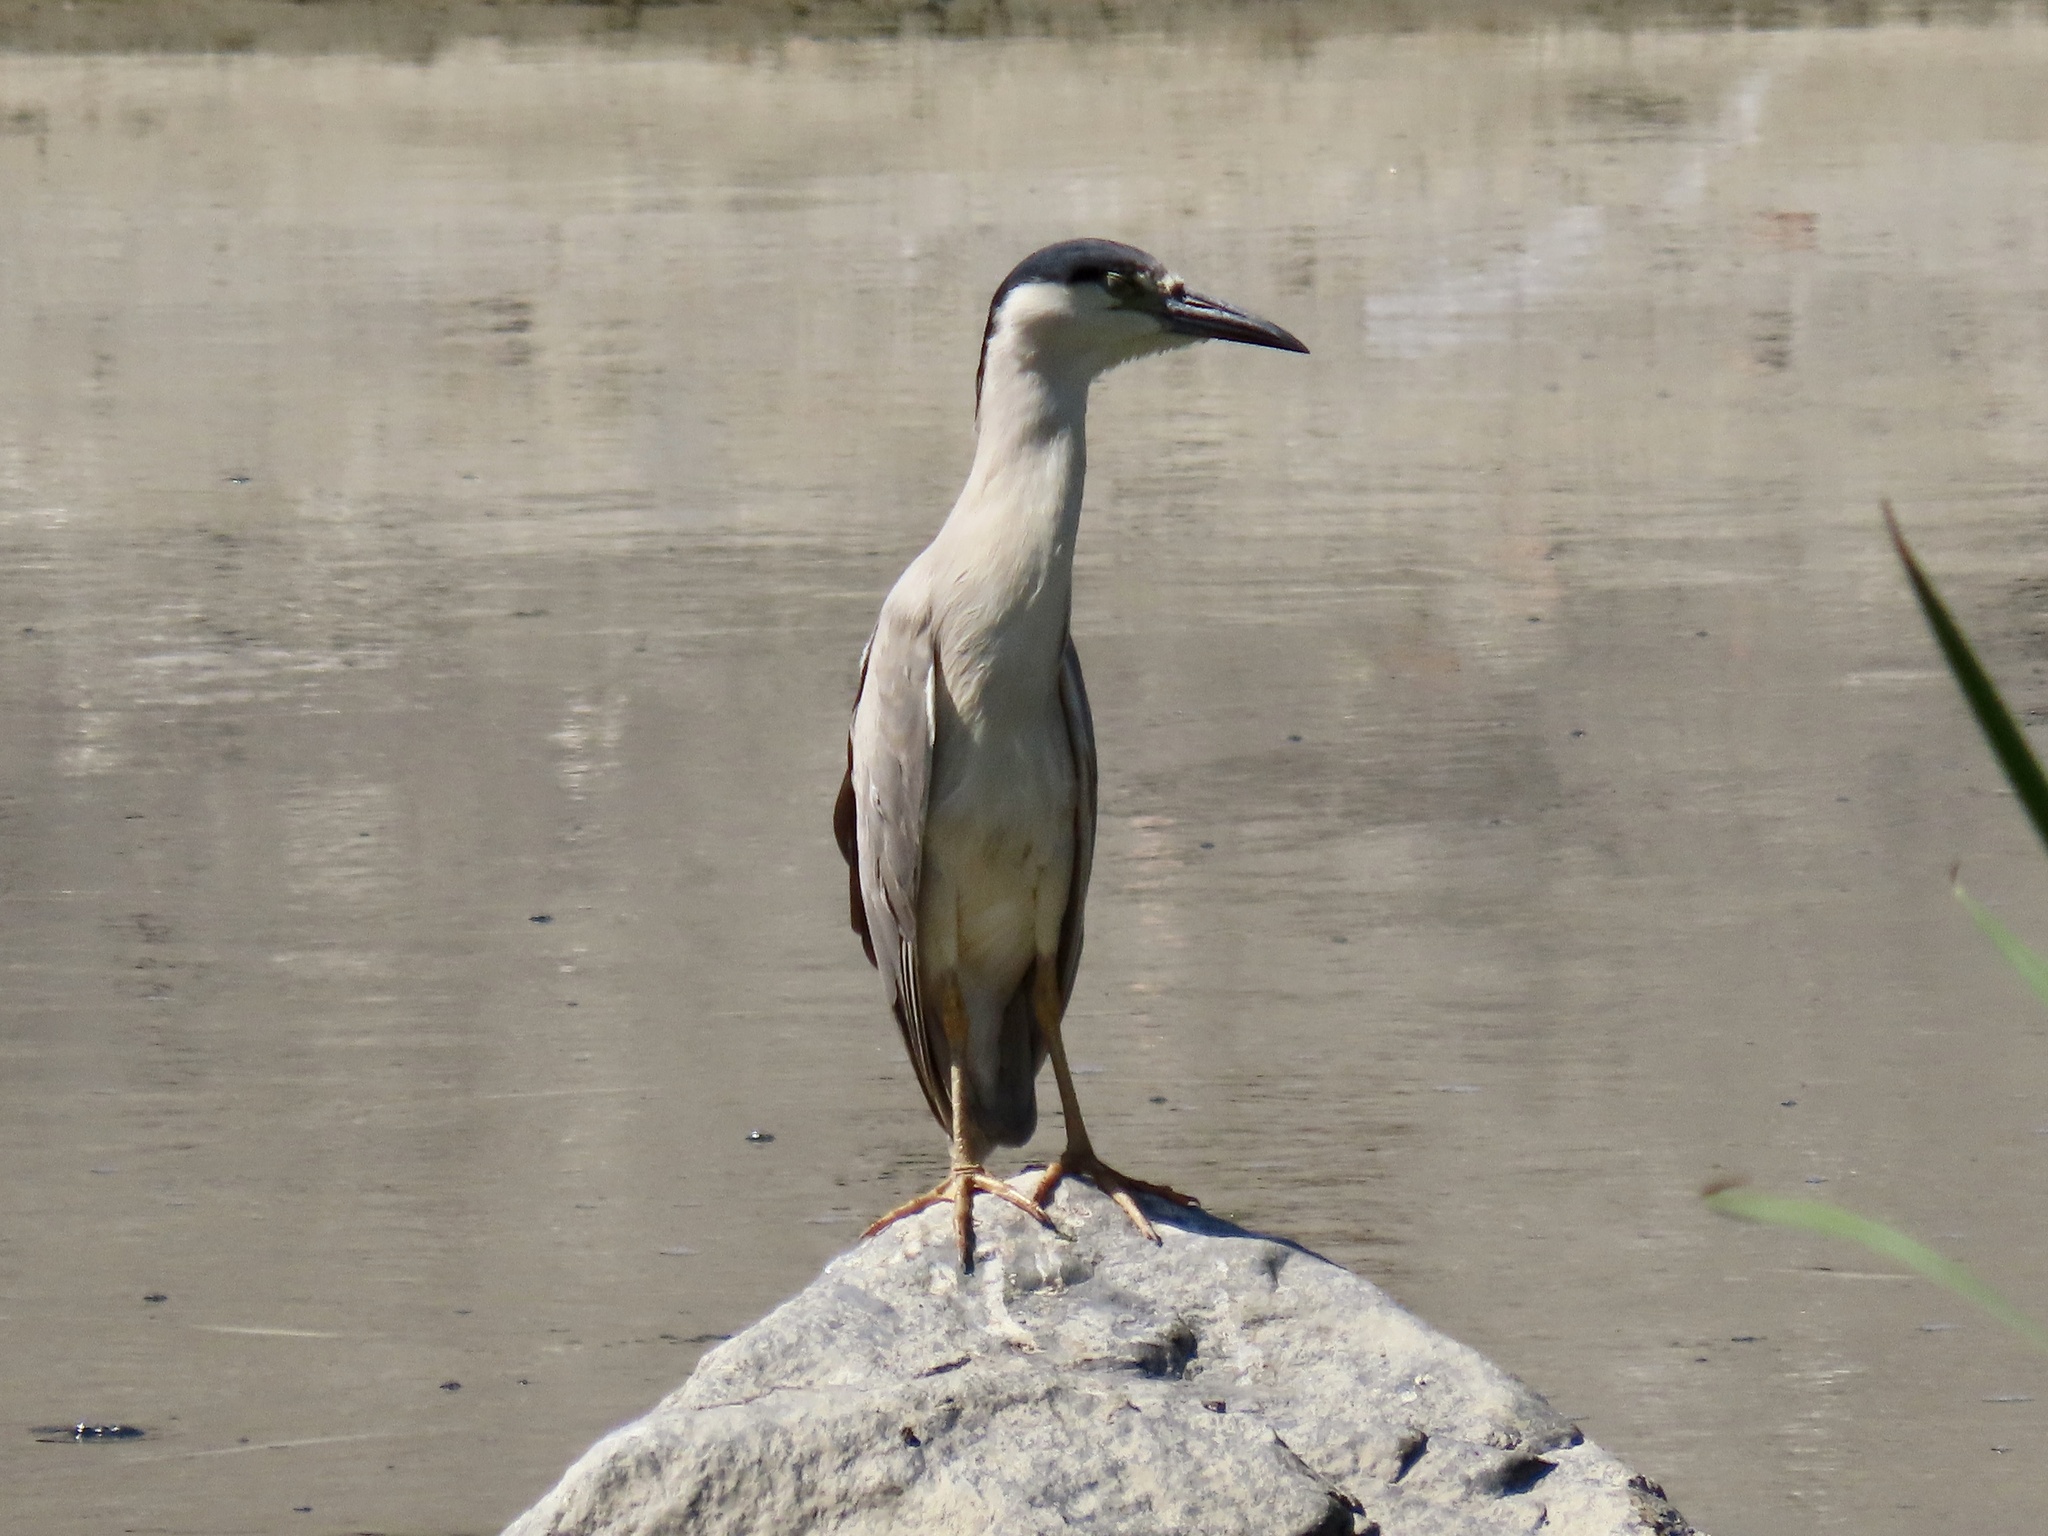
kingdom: Animalia
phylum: Chordata
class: Aves
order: Pelecaniformes
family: Ardeidae
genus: Nycticorax
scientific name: Nycticorax nycticorax
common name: Black-crowned night heron
